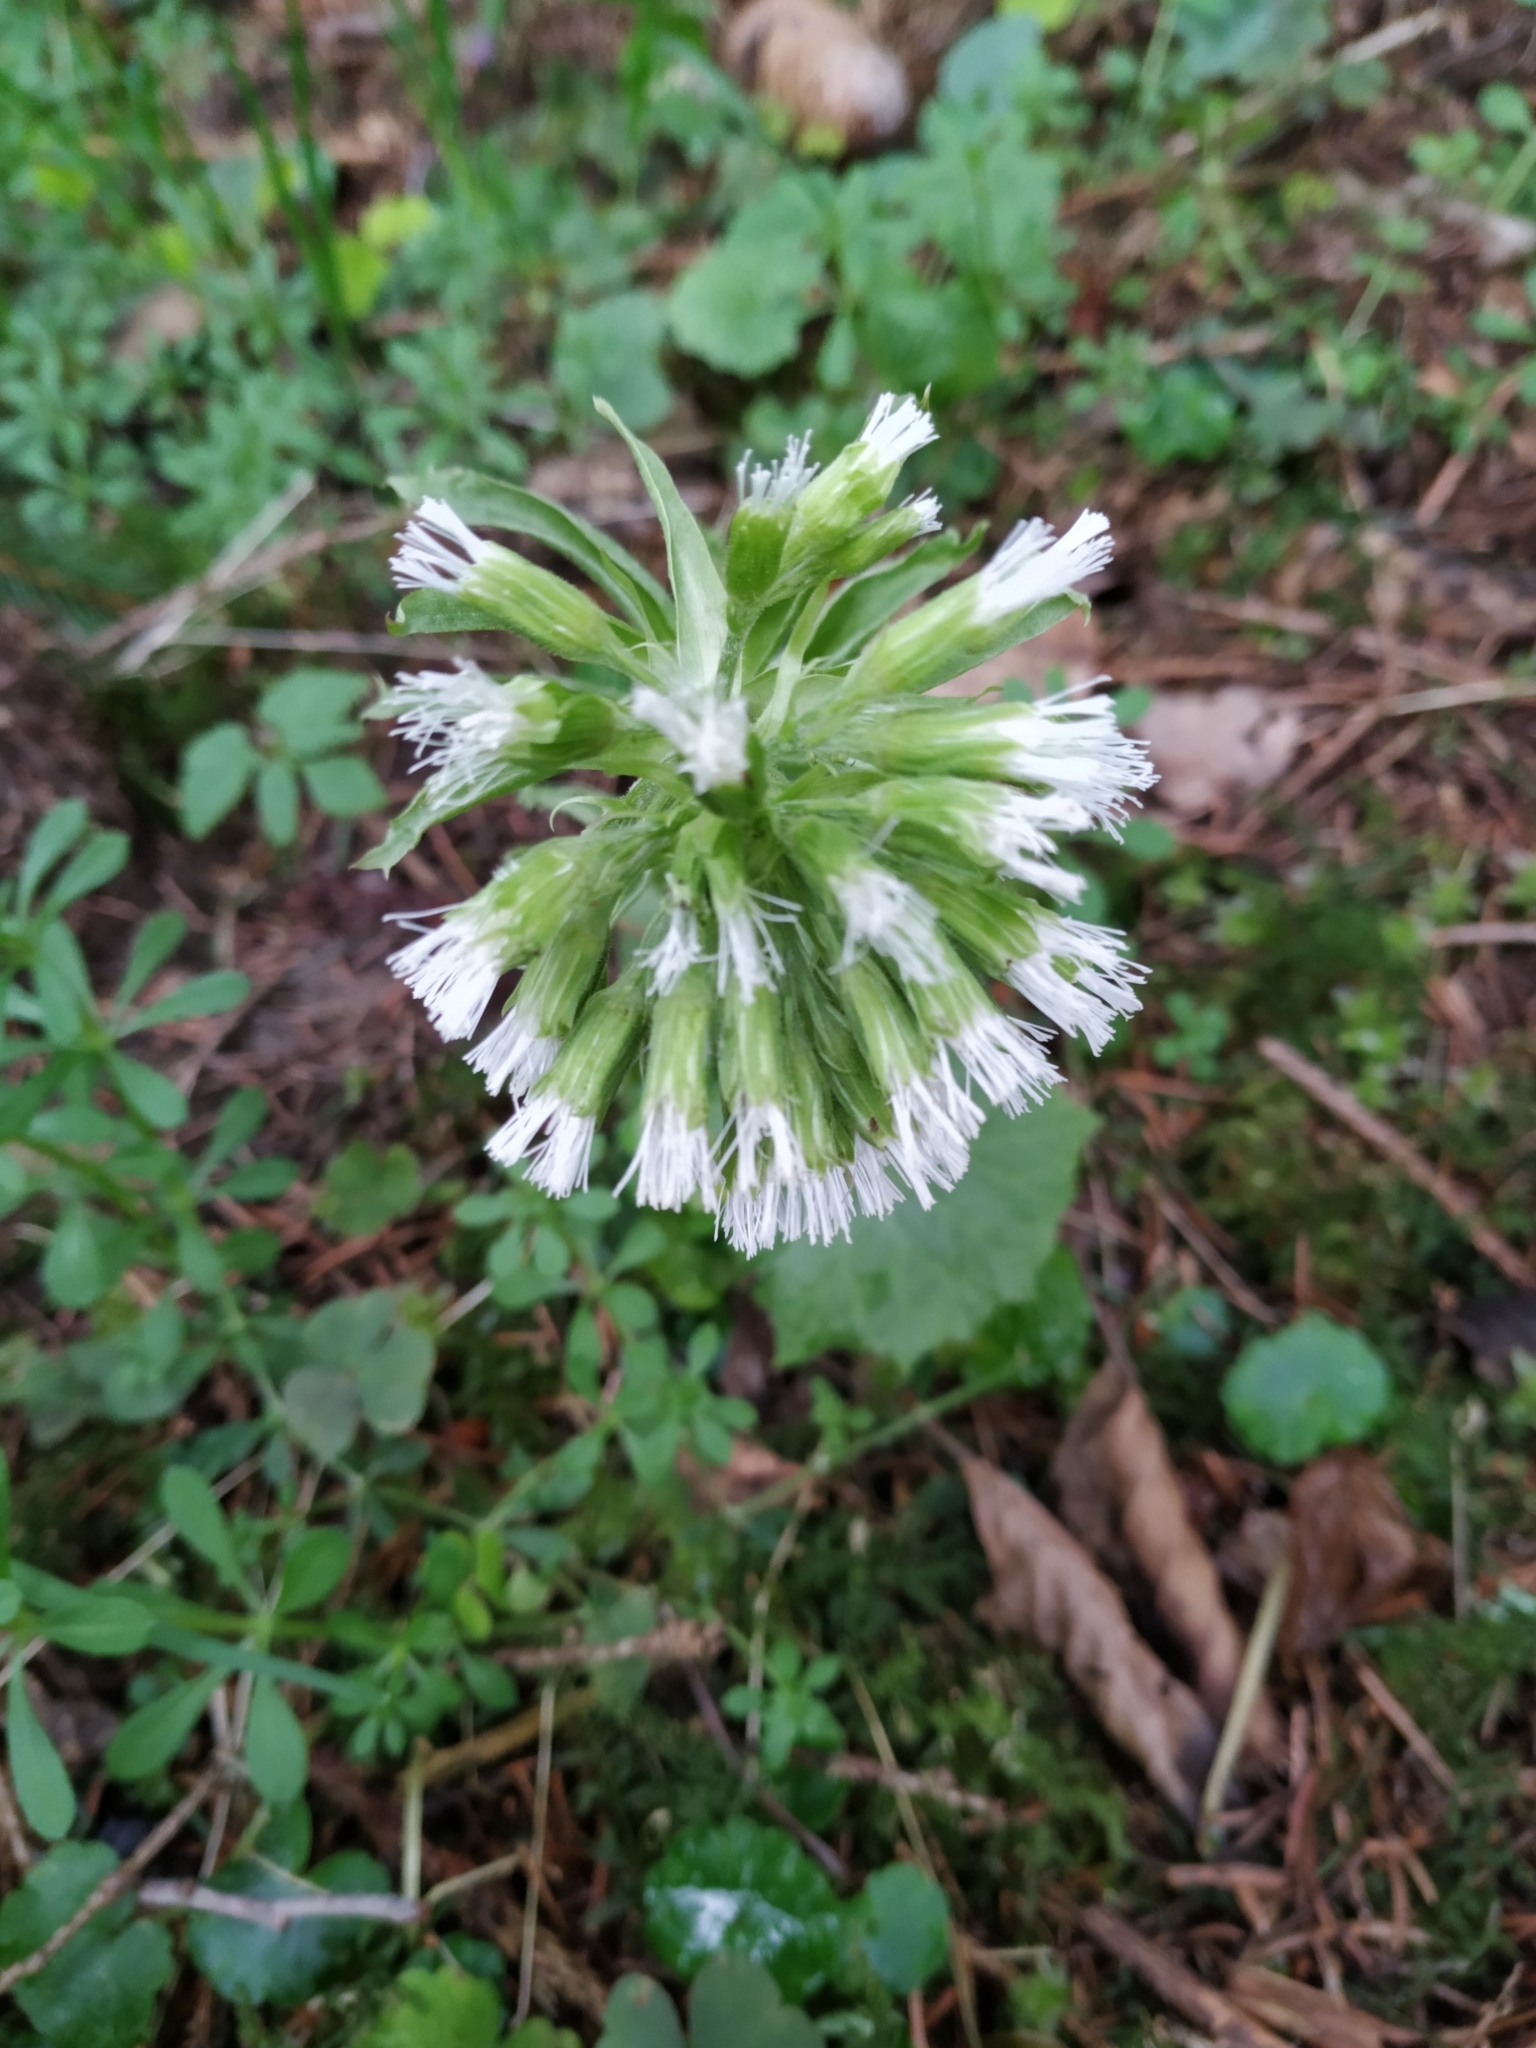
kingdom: Plantae
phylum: Tracheophyta
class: Magnoliopsida
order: Asterales
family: Asteraceae
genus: Petasites
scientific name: Petasites albus
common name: White butterbur
